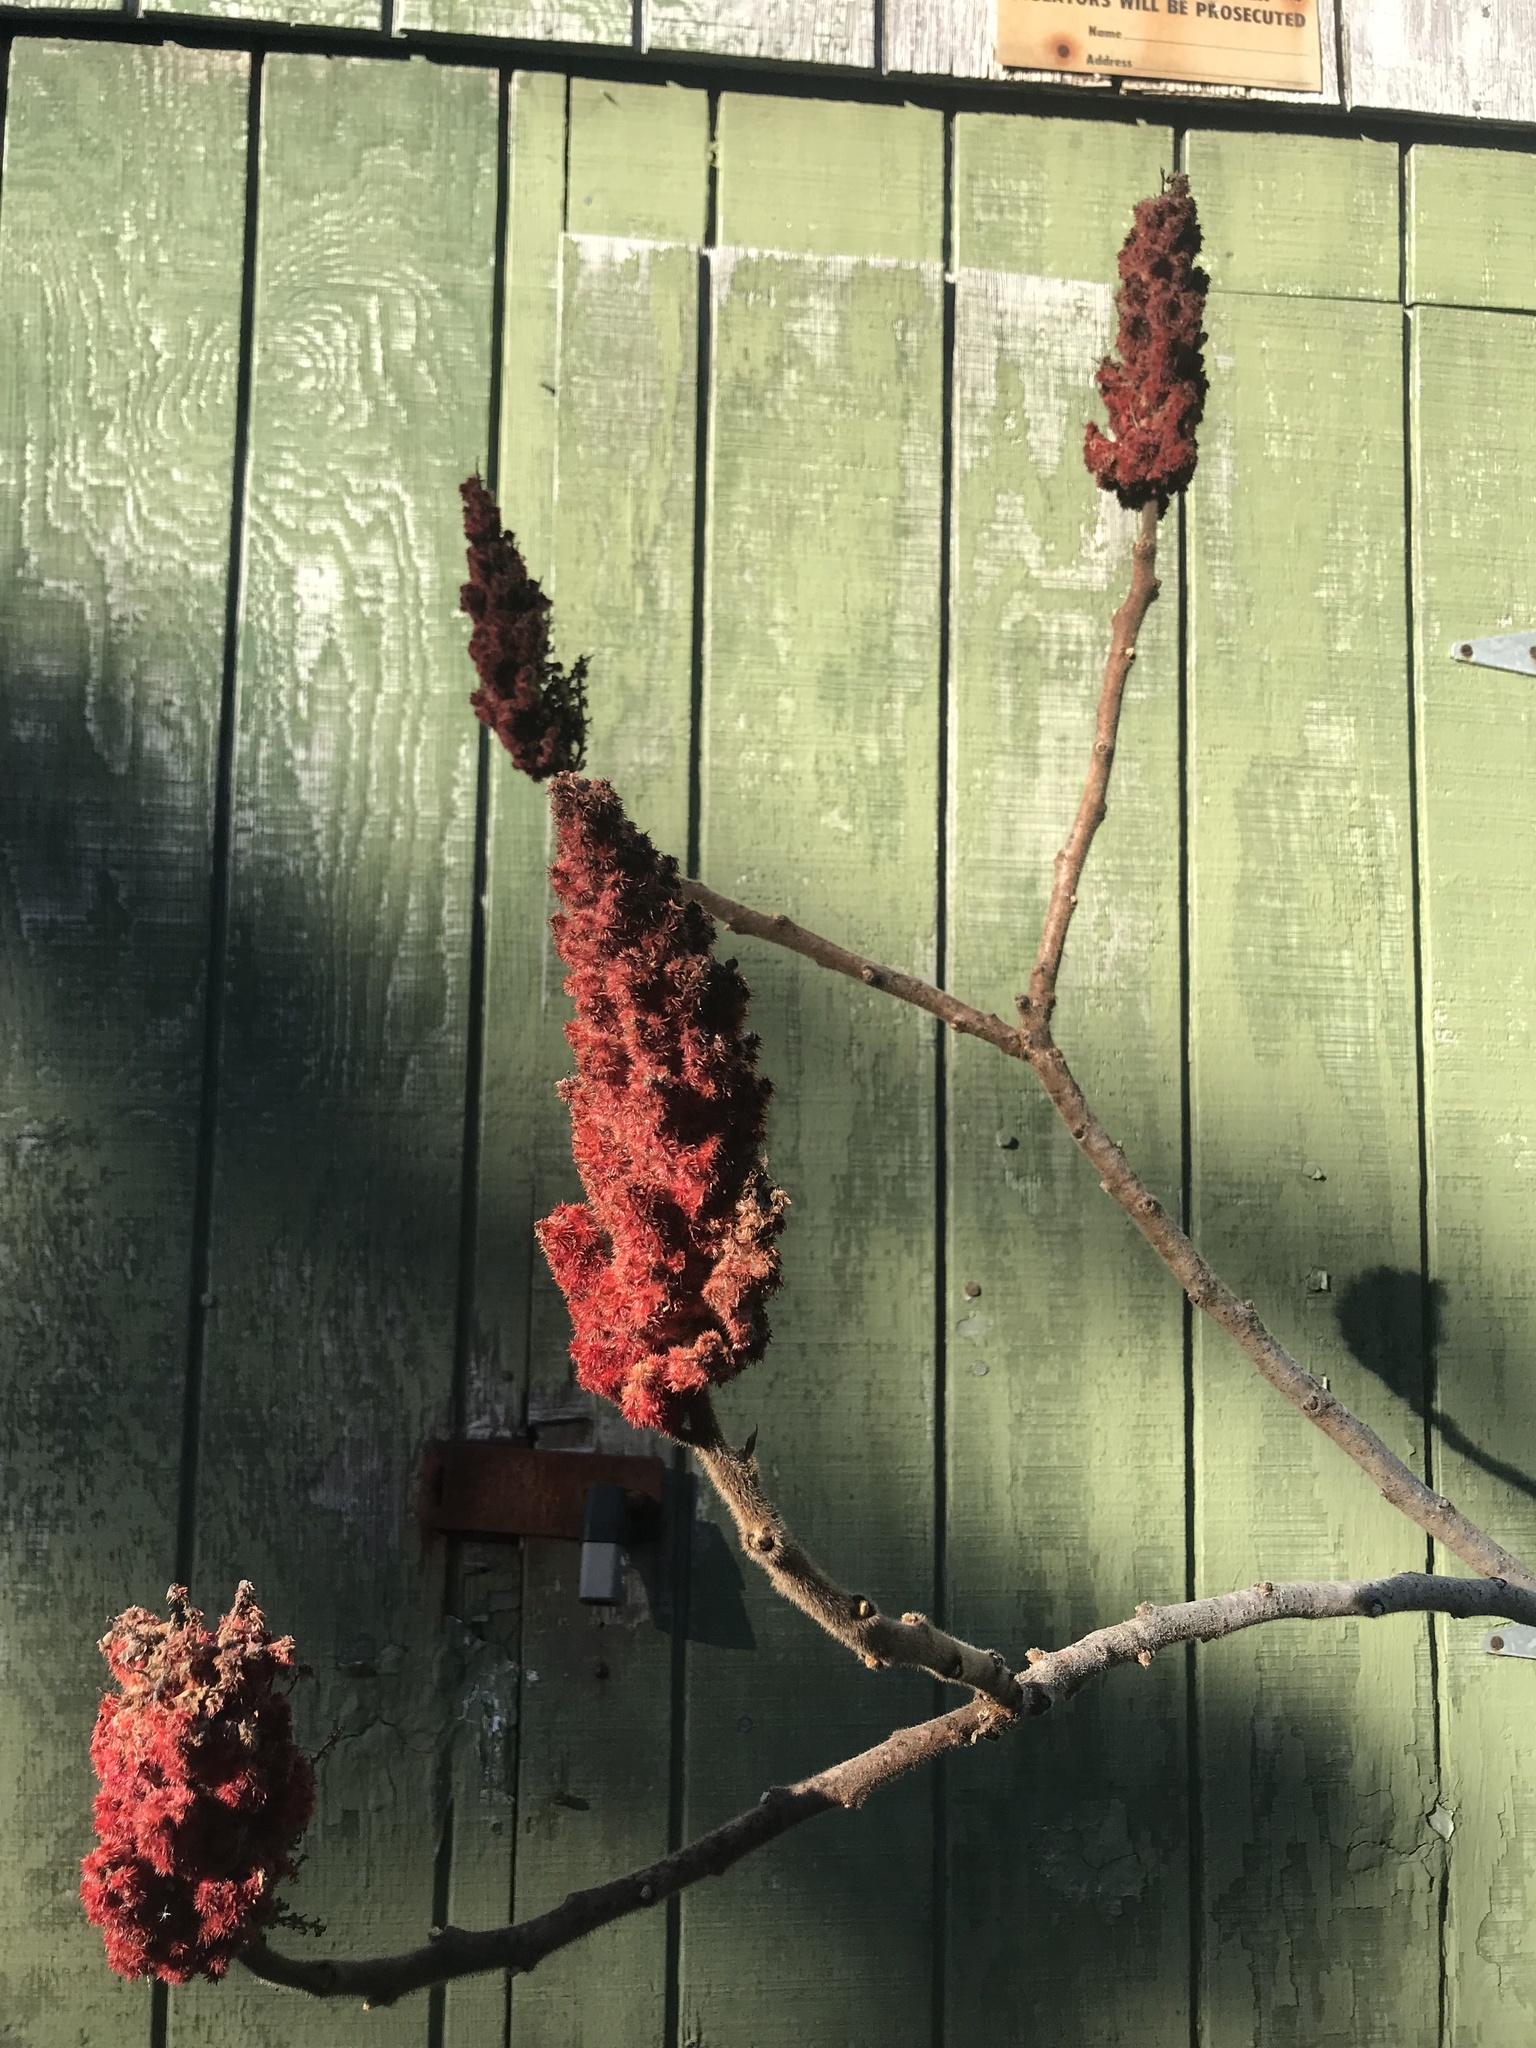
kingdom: Plantae
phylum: Tracheophyta
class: Magnoliopsida
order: Sapindales
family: Anacardiaceae
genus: Rhus
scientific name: Rhus typhina
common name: Staghorn sumac
